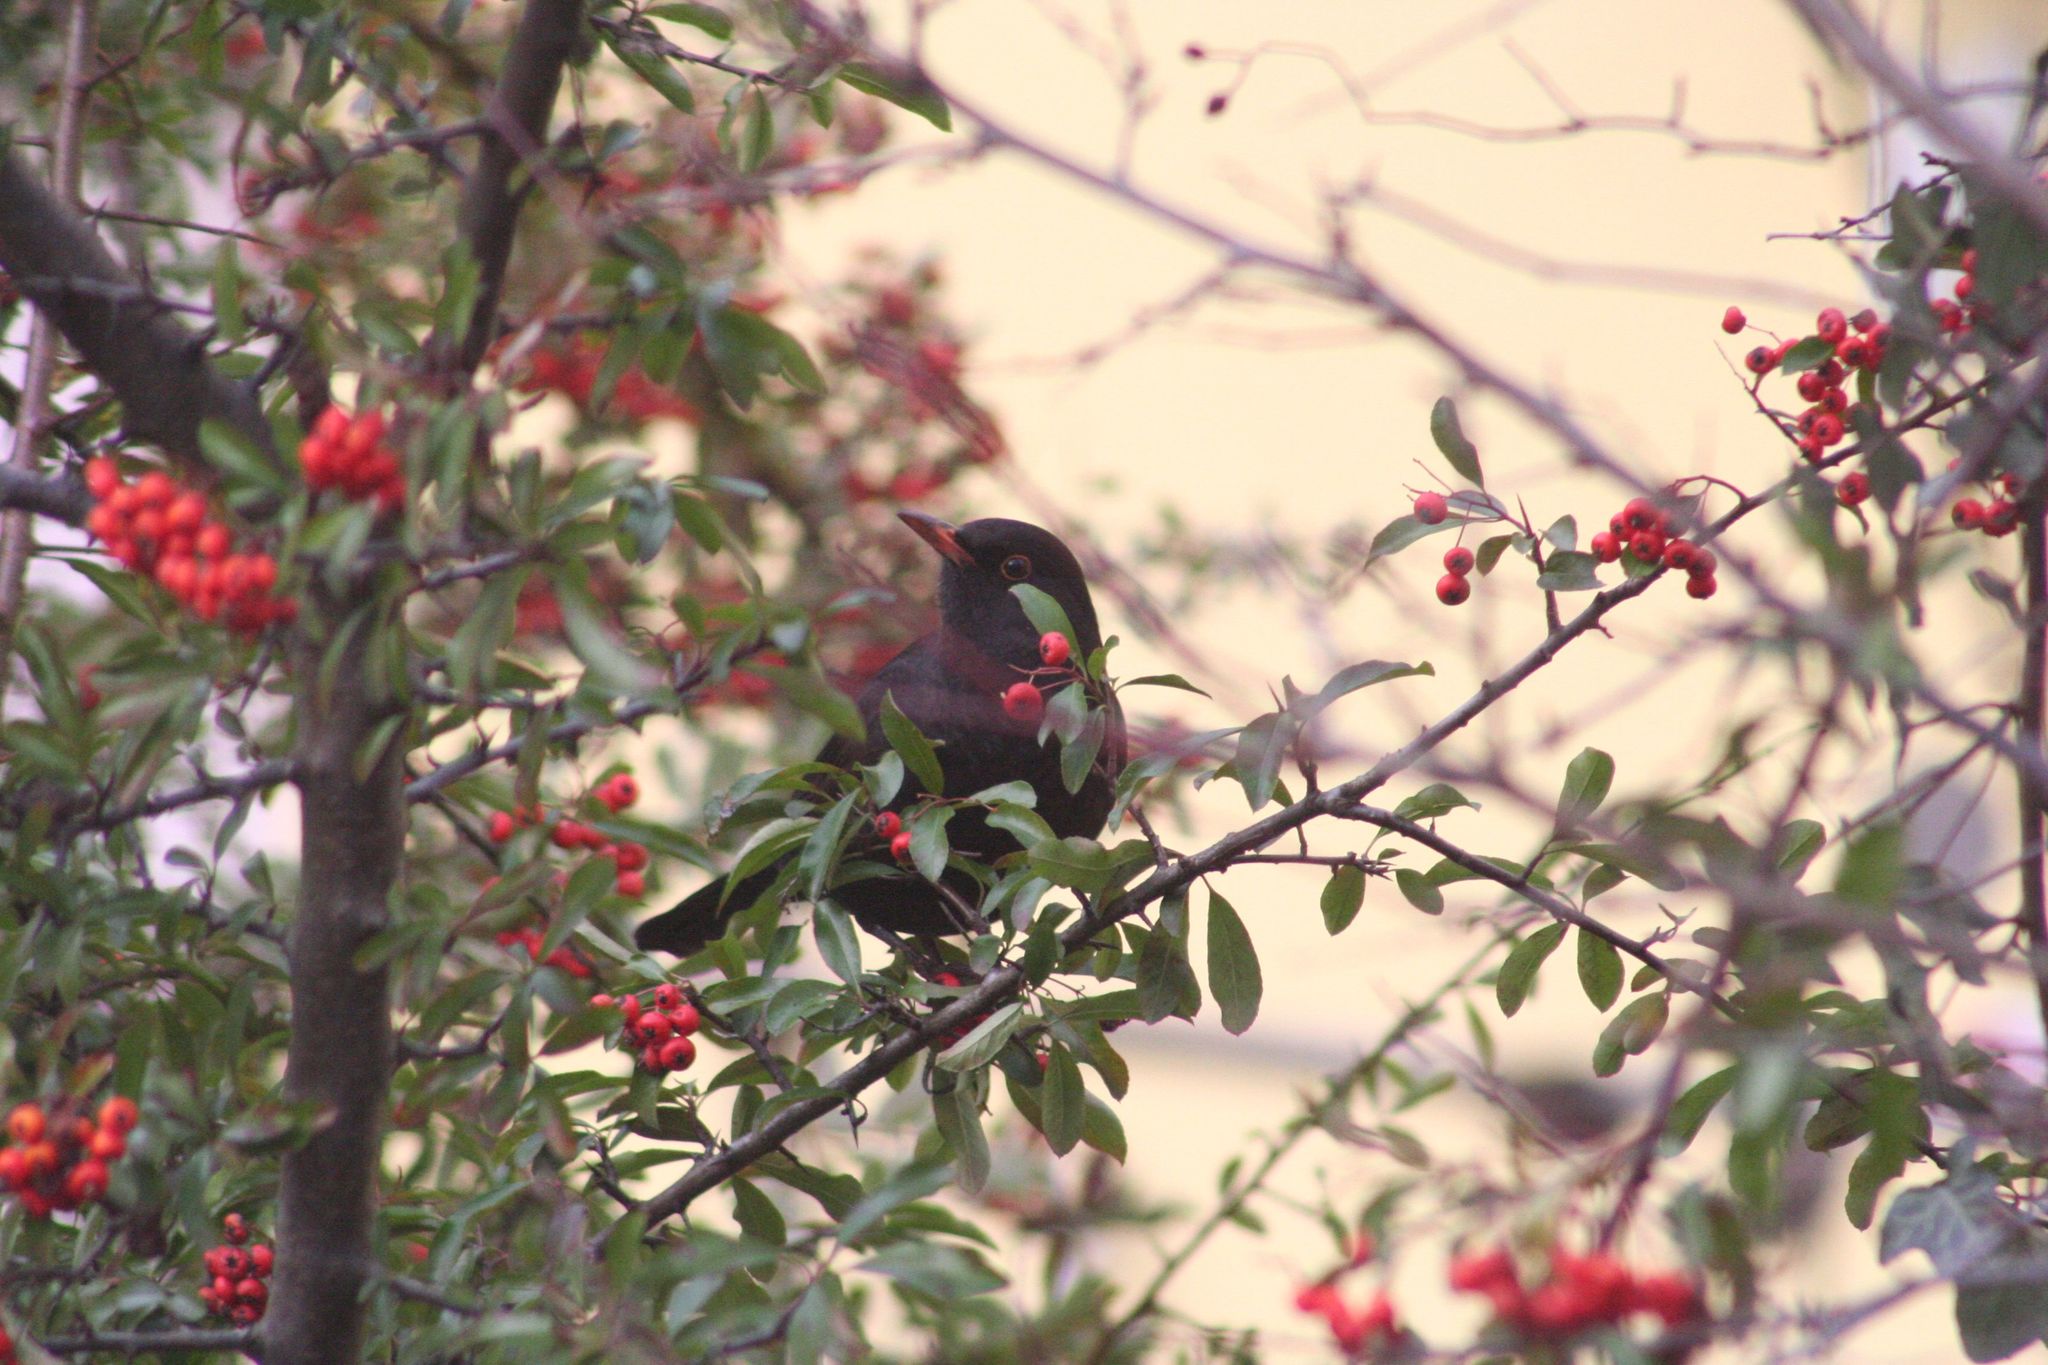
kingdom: Animalia
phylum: Chordata
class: Aves
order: Passeriformes
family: Turdidae
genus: Turdus
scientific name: Turdus merula
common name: Common blackbird
